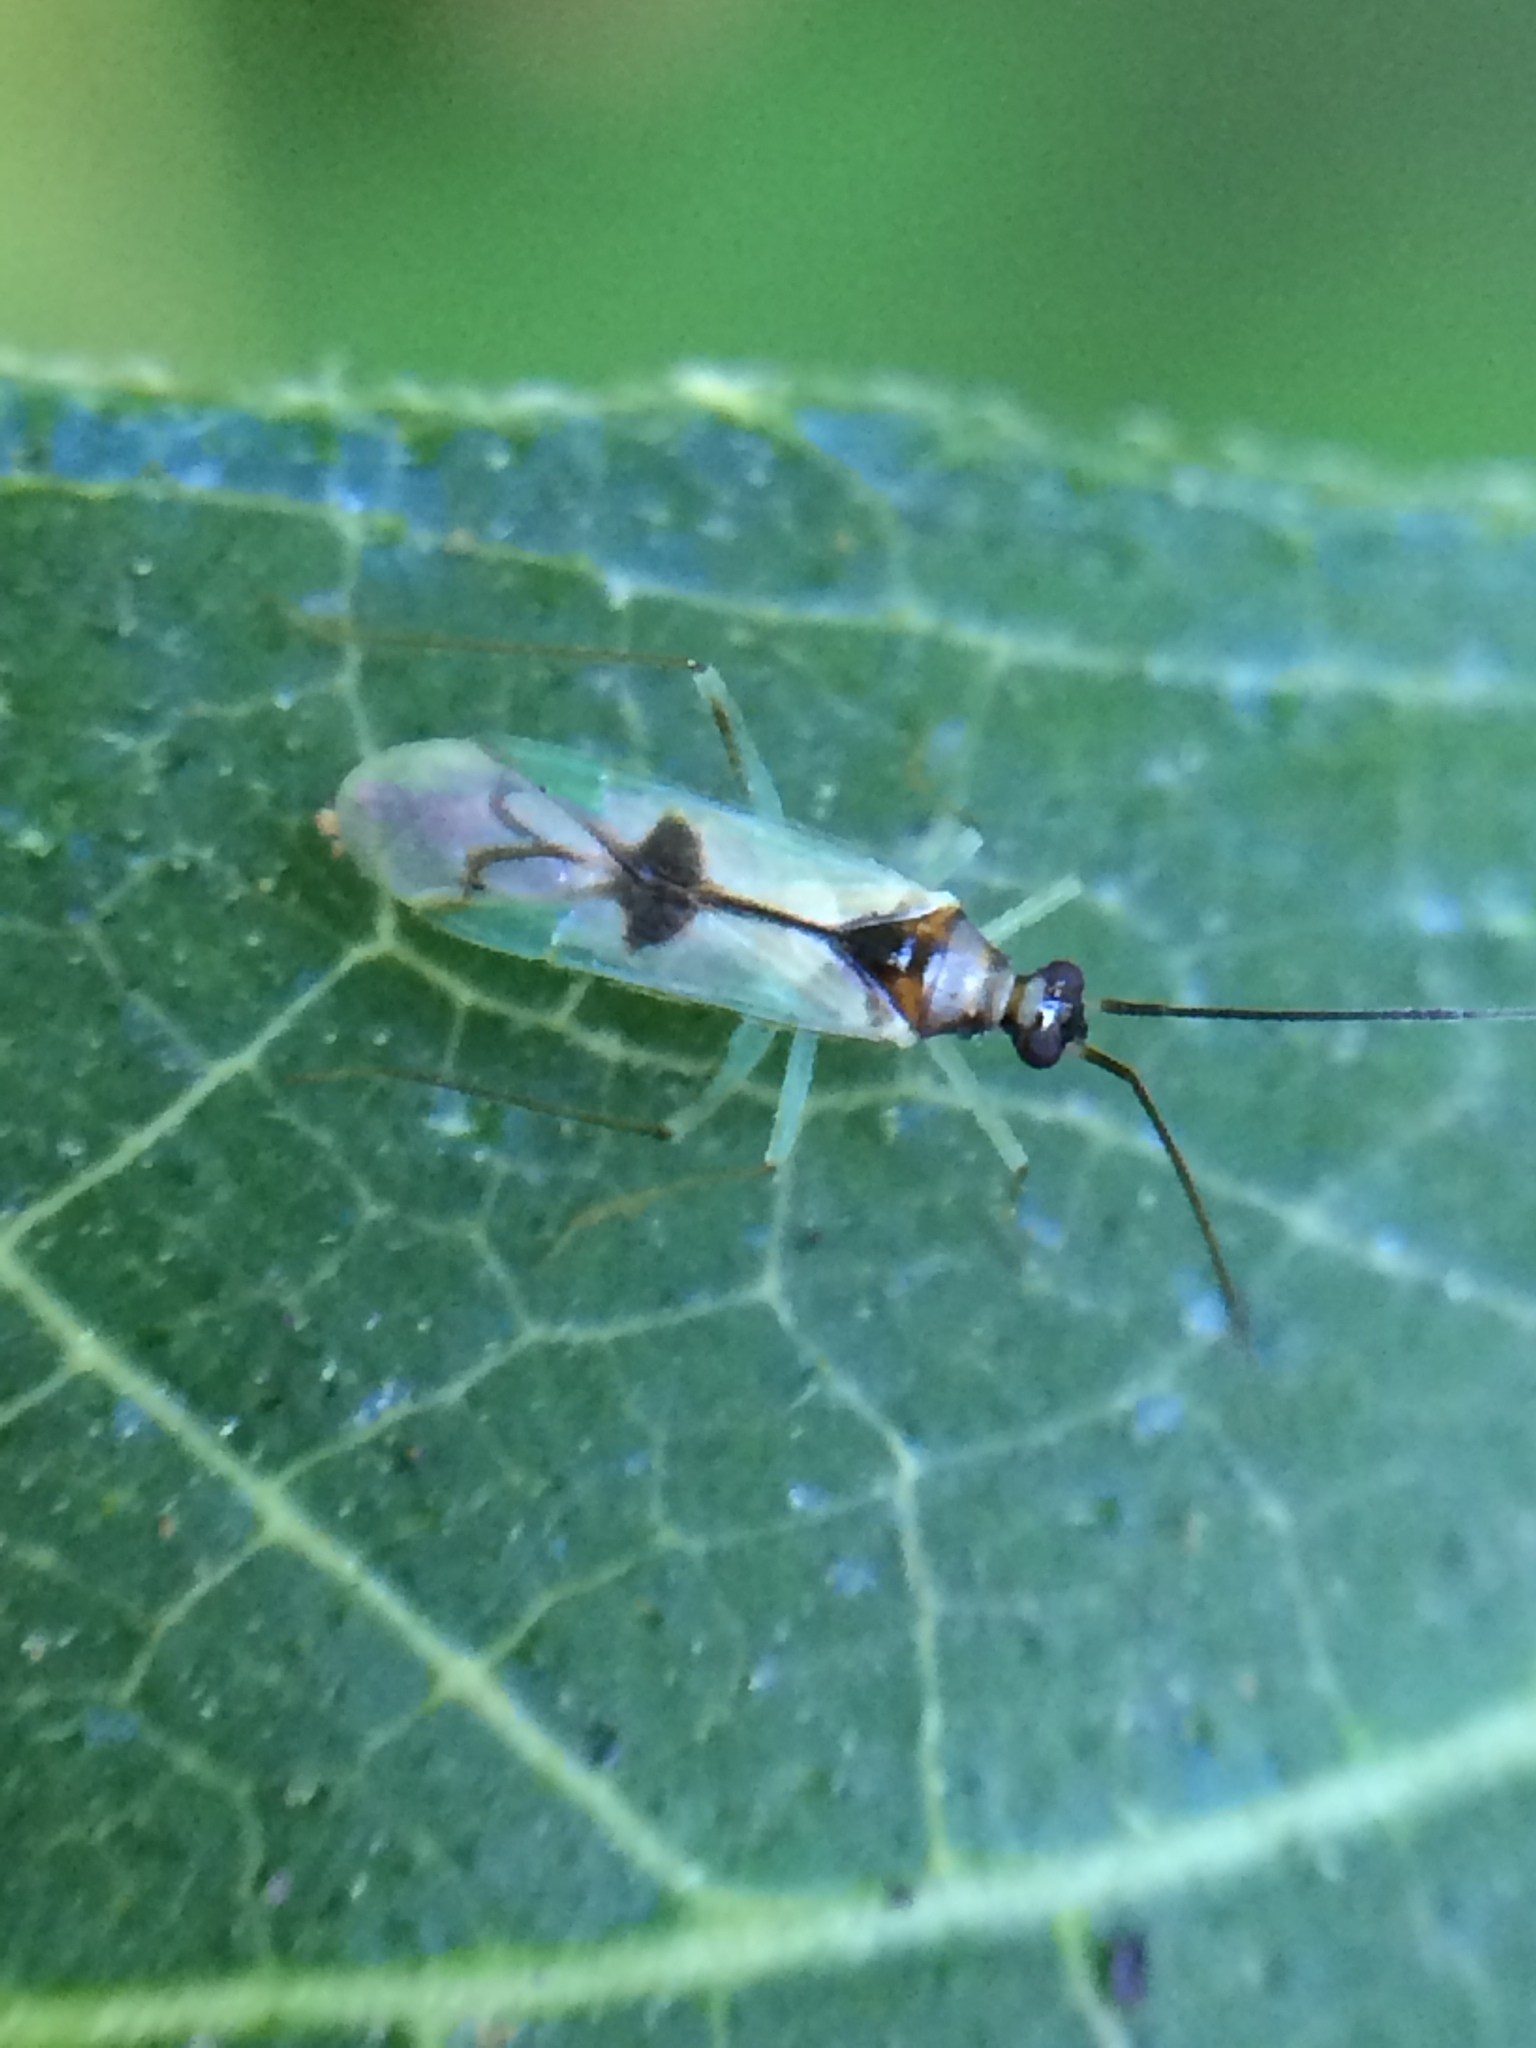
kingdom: Animalia
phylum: Arthropoda
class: Insecta
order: Hemiptera
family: Miridae
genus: Paraproba
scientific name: Paraproba pendula
